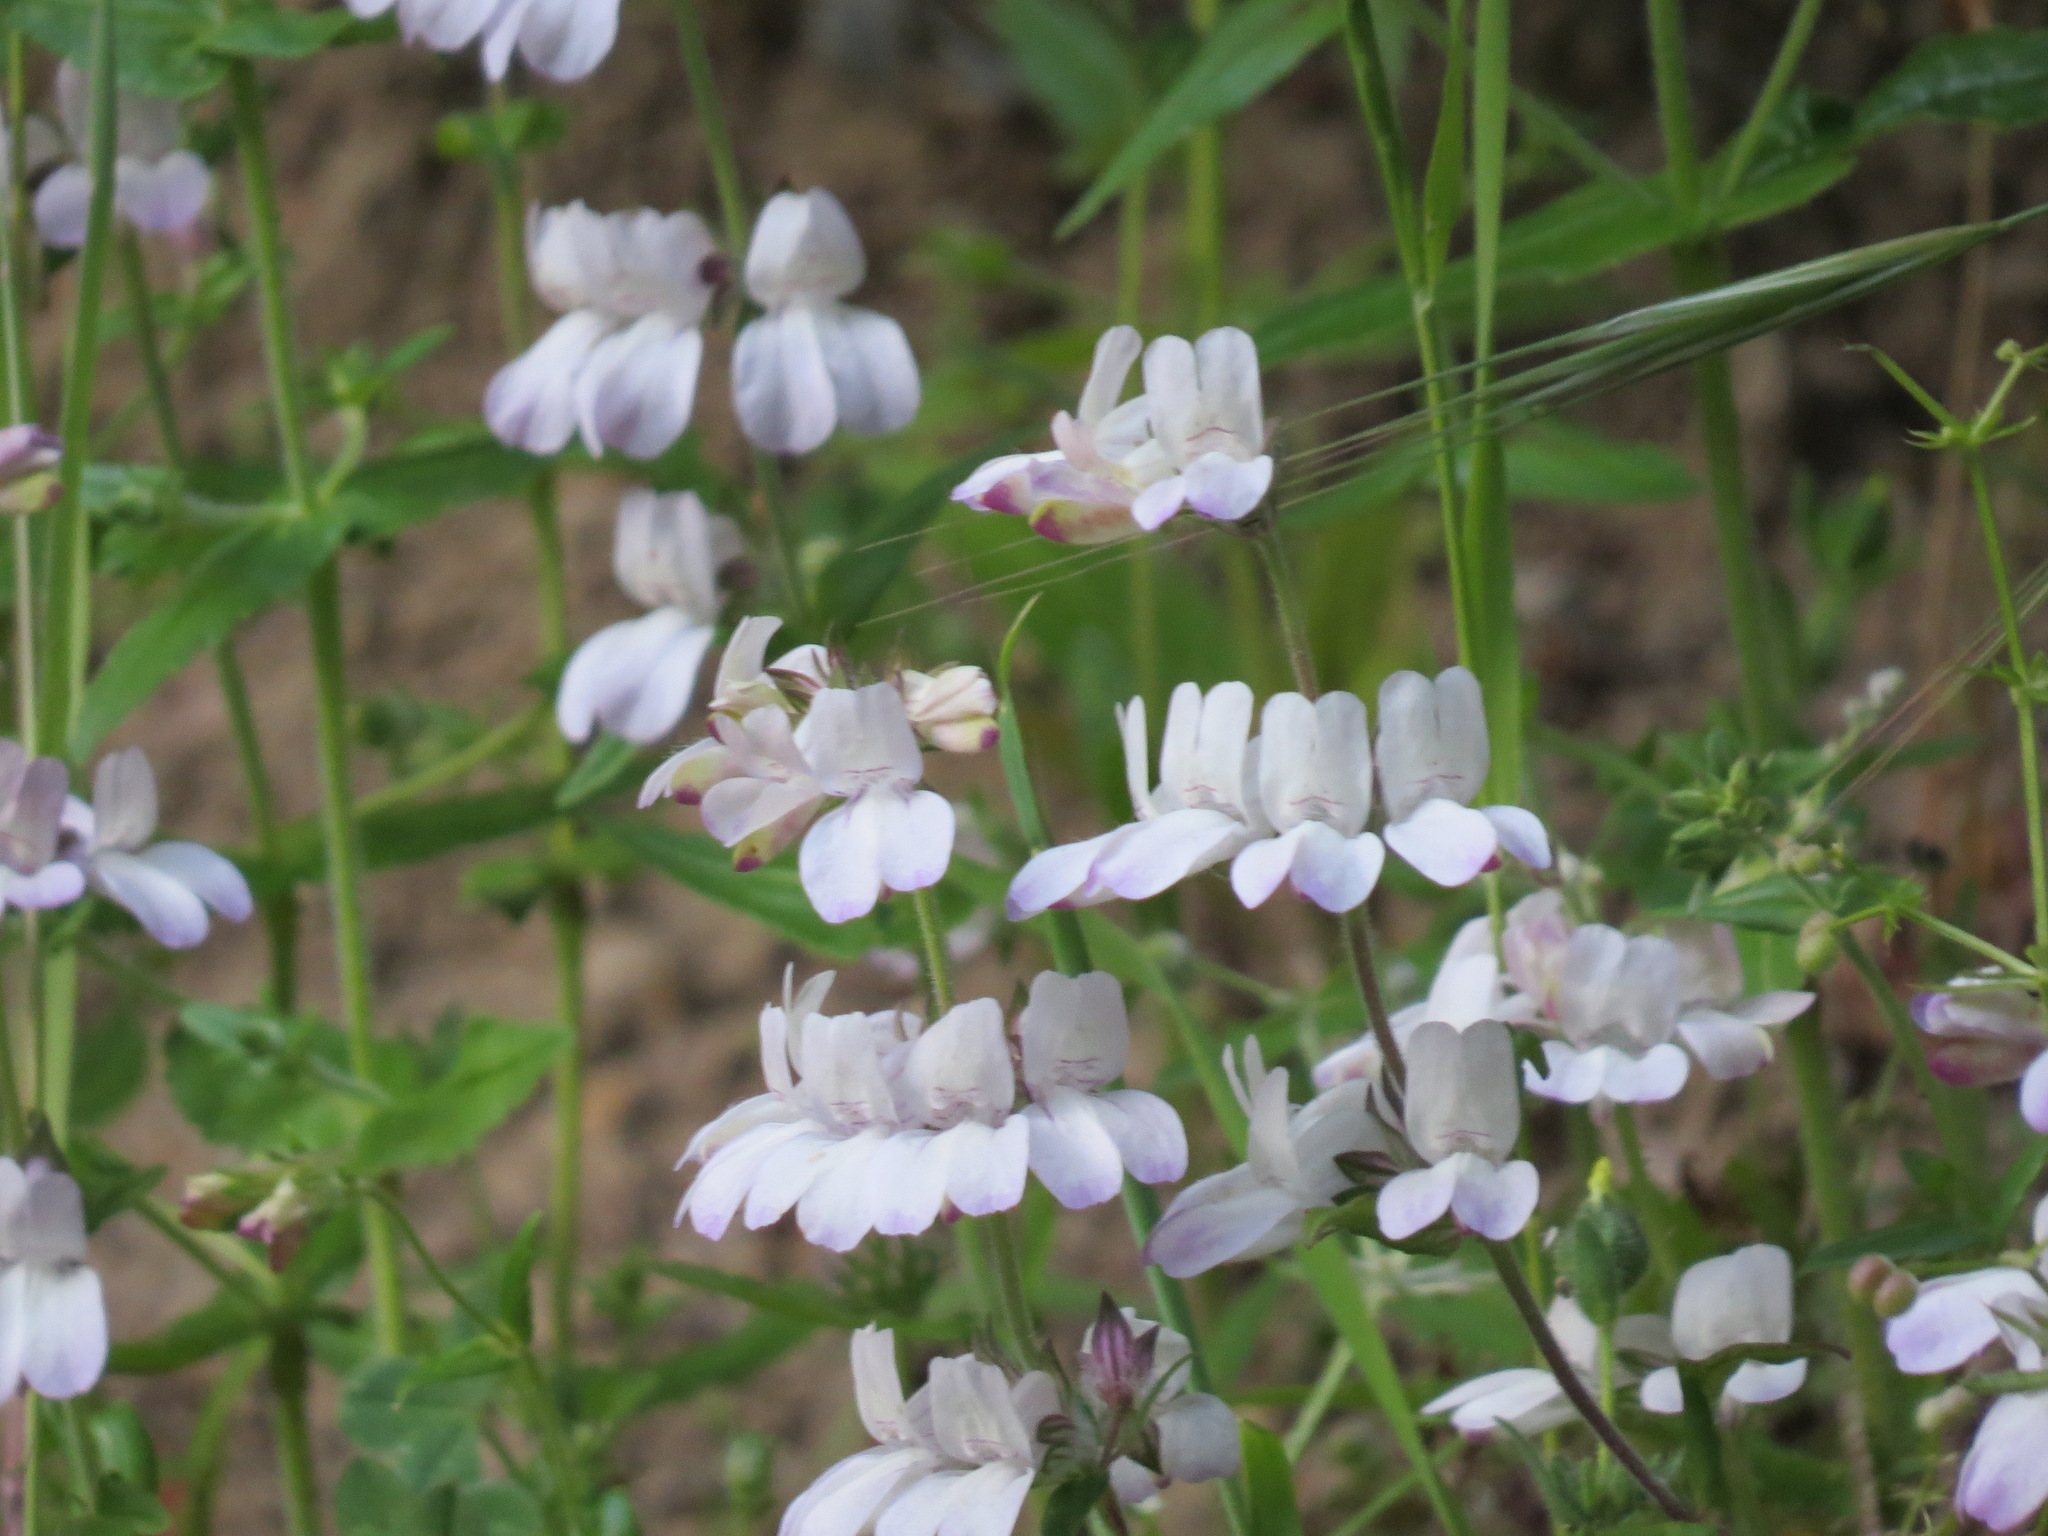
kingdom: Plantae
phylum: Tracheophyta
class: Magnoliopsida
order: Lamiales
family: Plantaginaceae
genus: Collinsia
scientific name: Collinsia heterophylla
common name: Chinese-houses
